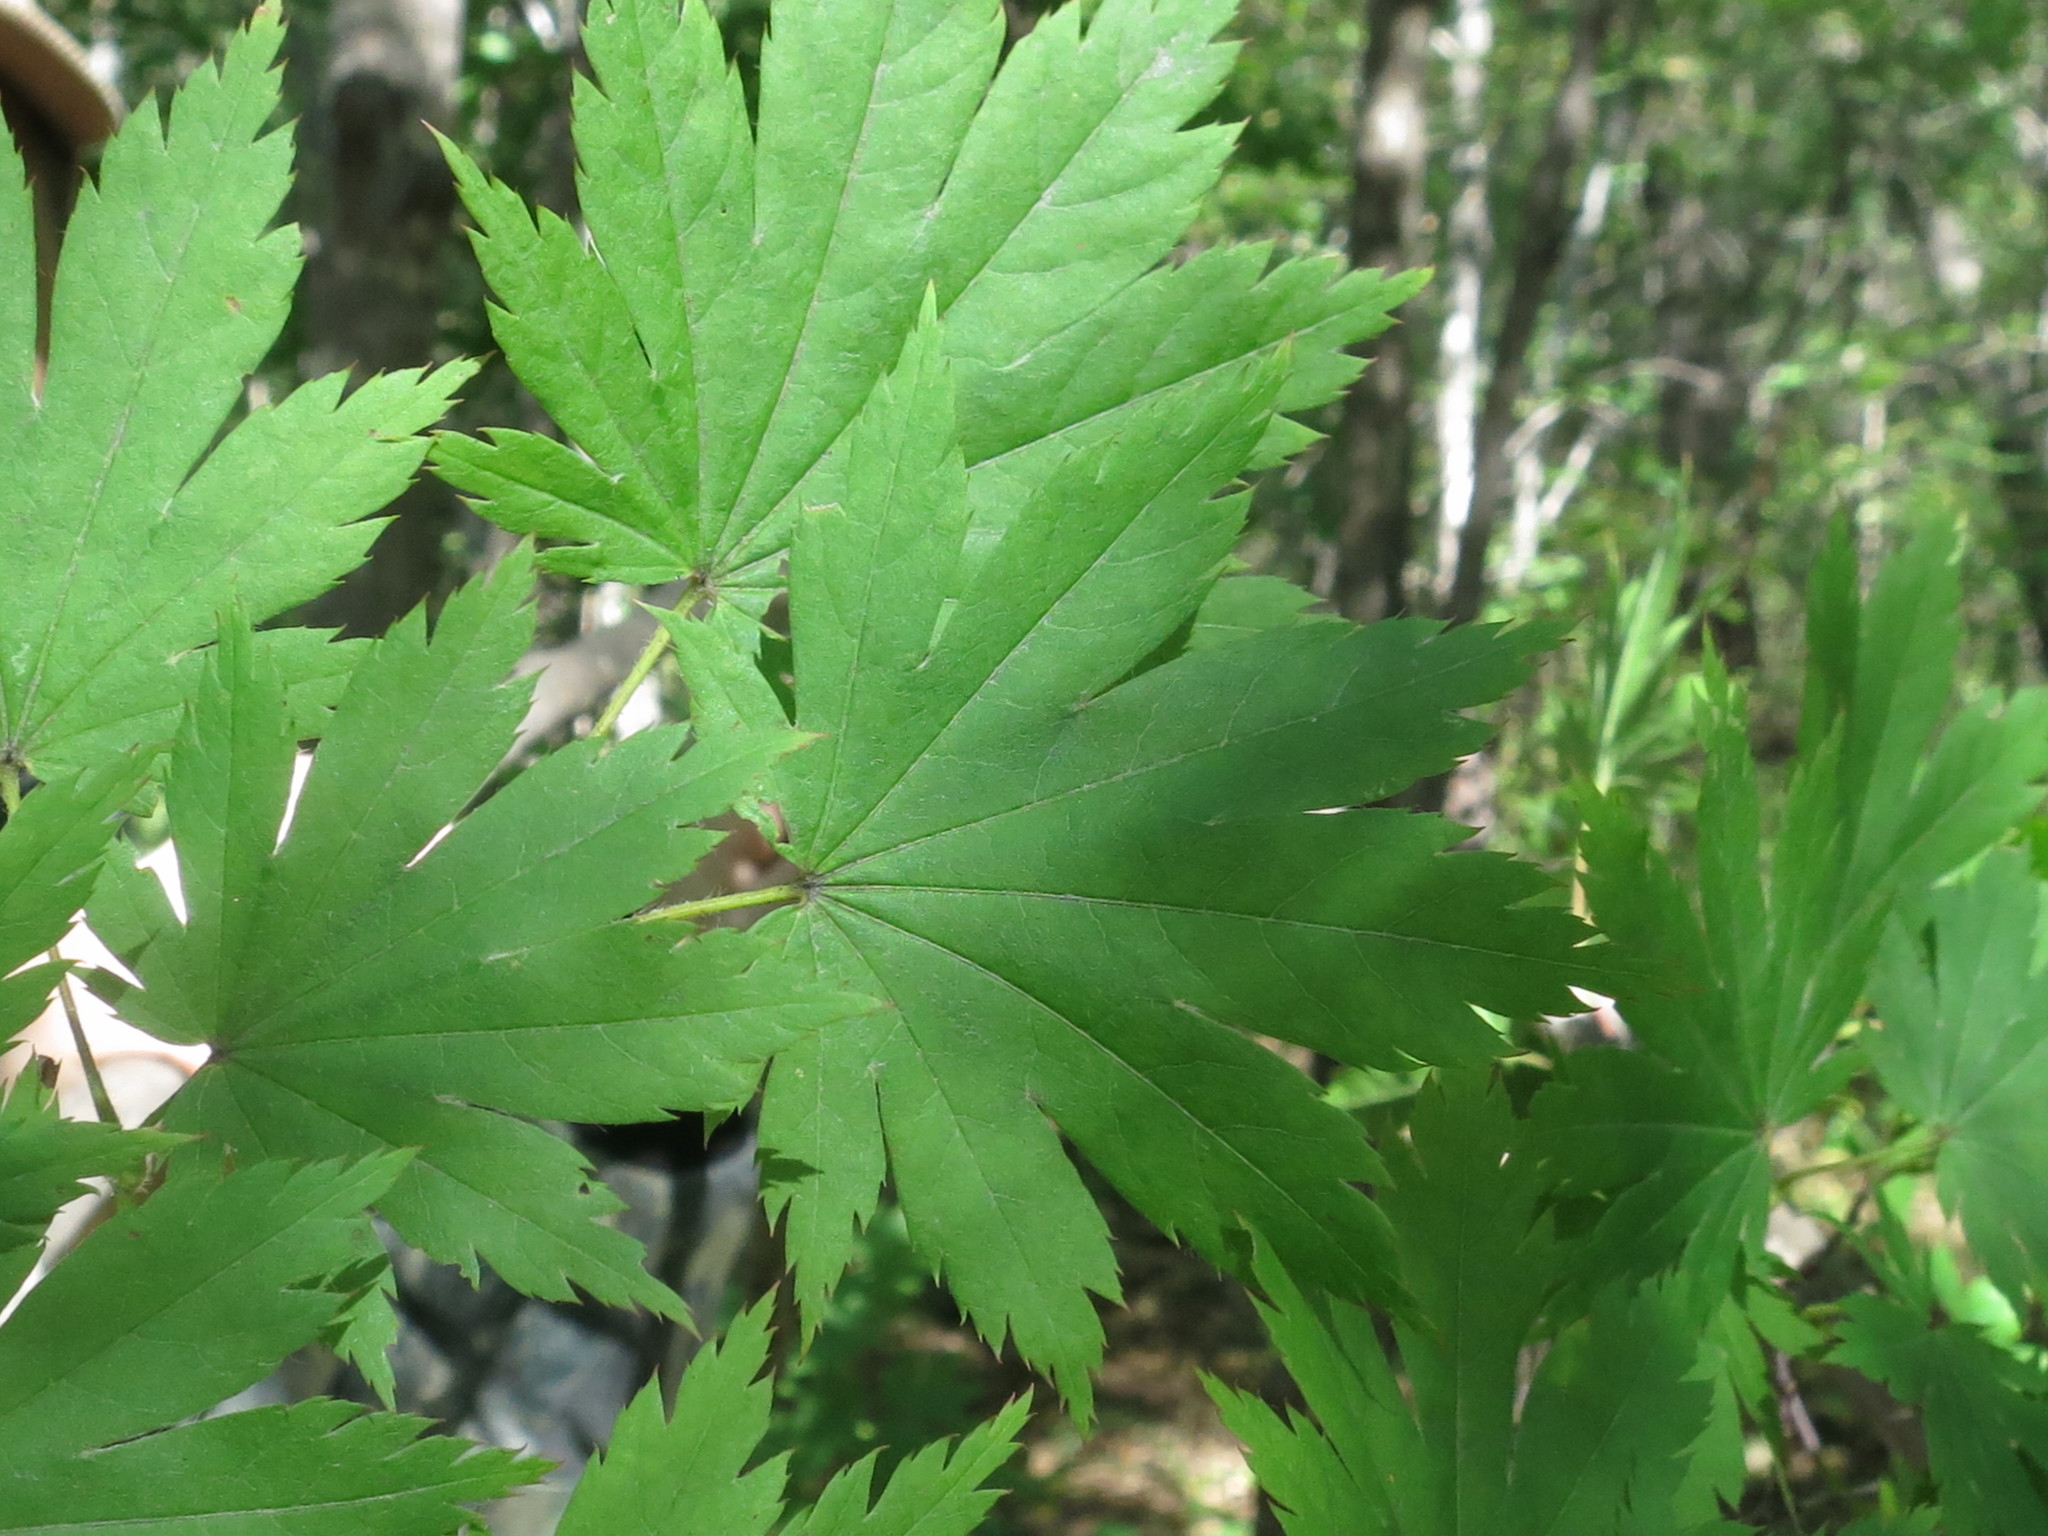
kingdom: Plantae
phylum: Tracheophyta
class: Magnoliopsida
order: Sapindales
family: Sapindaceae
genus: Acer
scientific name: Acer pseudosieboldianum
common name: Korean maple
